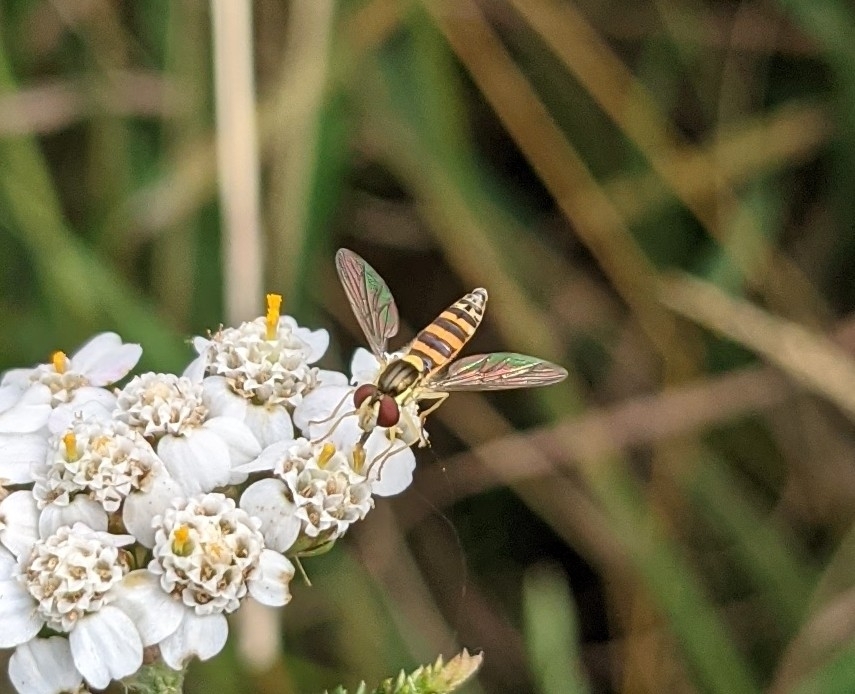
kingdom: Animalia
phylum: Arthropoda
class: Insecta
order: Diptera
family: Syrphidae
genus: Sphaerophoria
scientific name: Sphaerophoria
